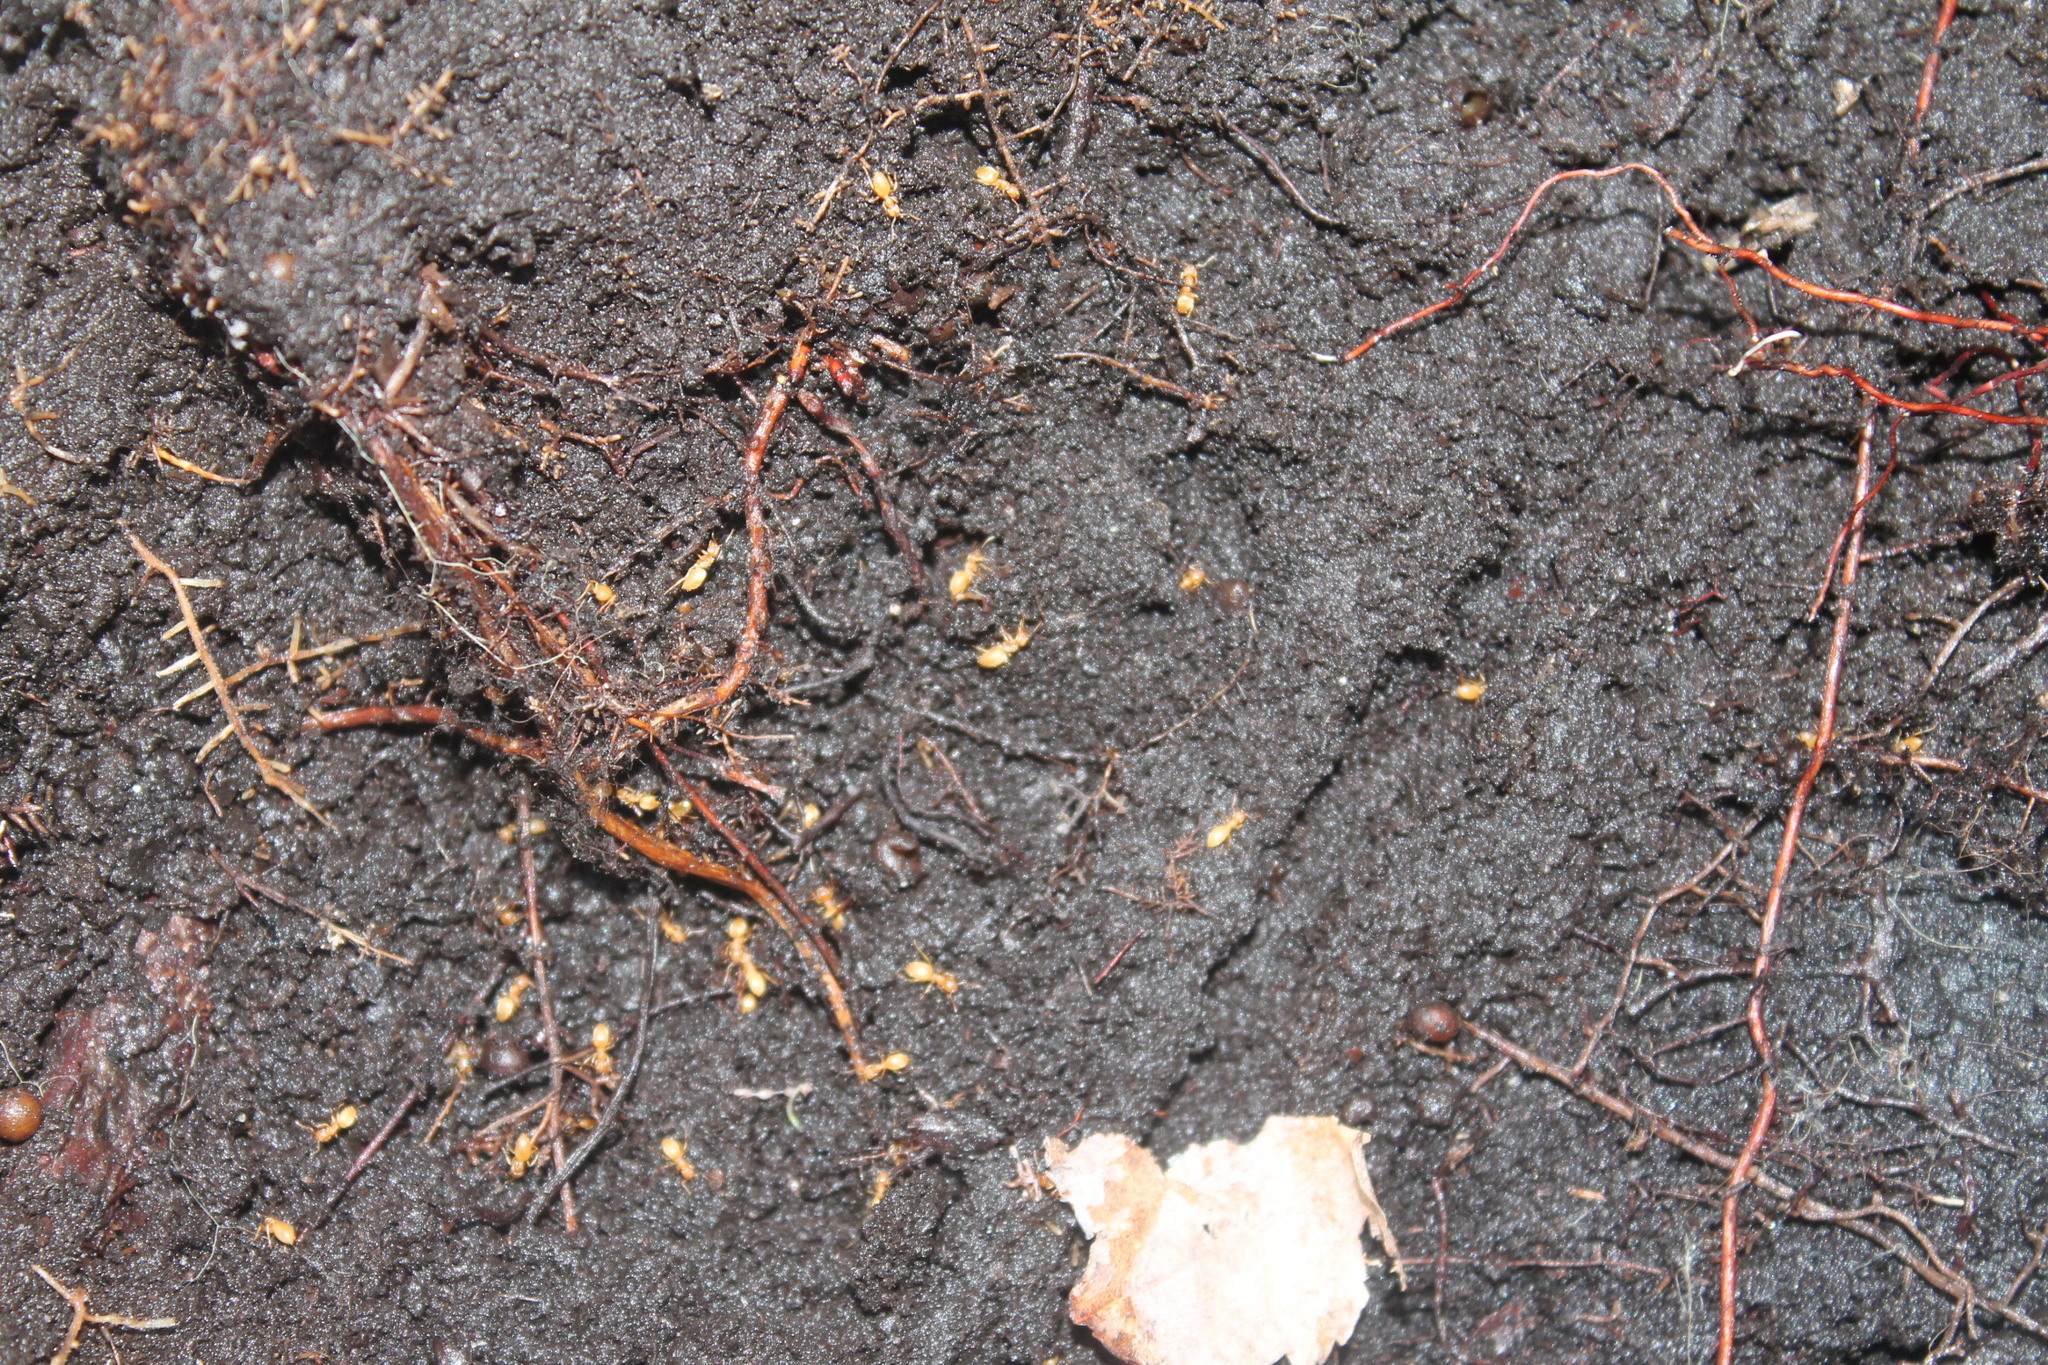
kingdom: Animalia
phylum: Arthropoda
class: Insecta
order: Hymenoptera
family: Formicidae
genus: Lasius
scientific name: Lasius nearcticus
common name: New world fuzzy ant
